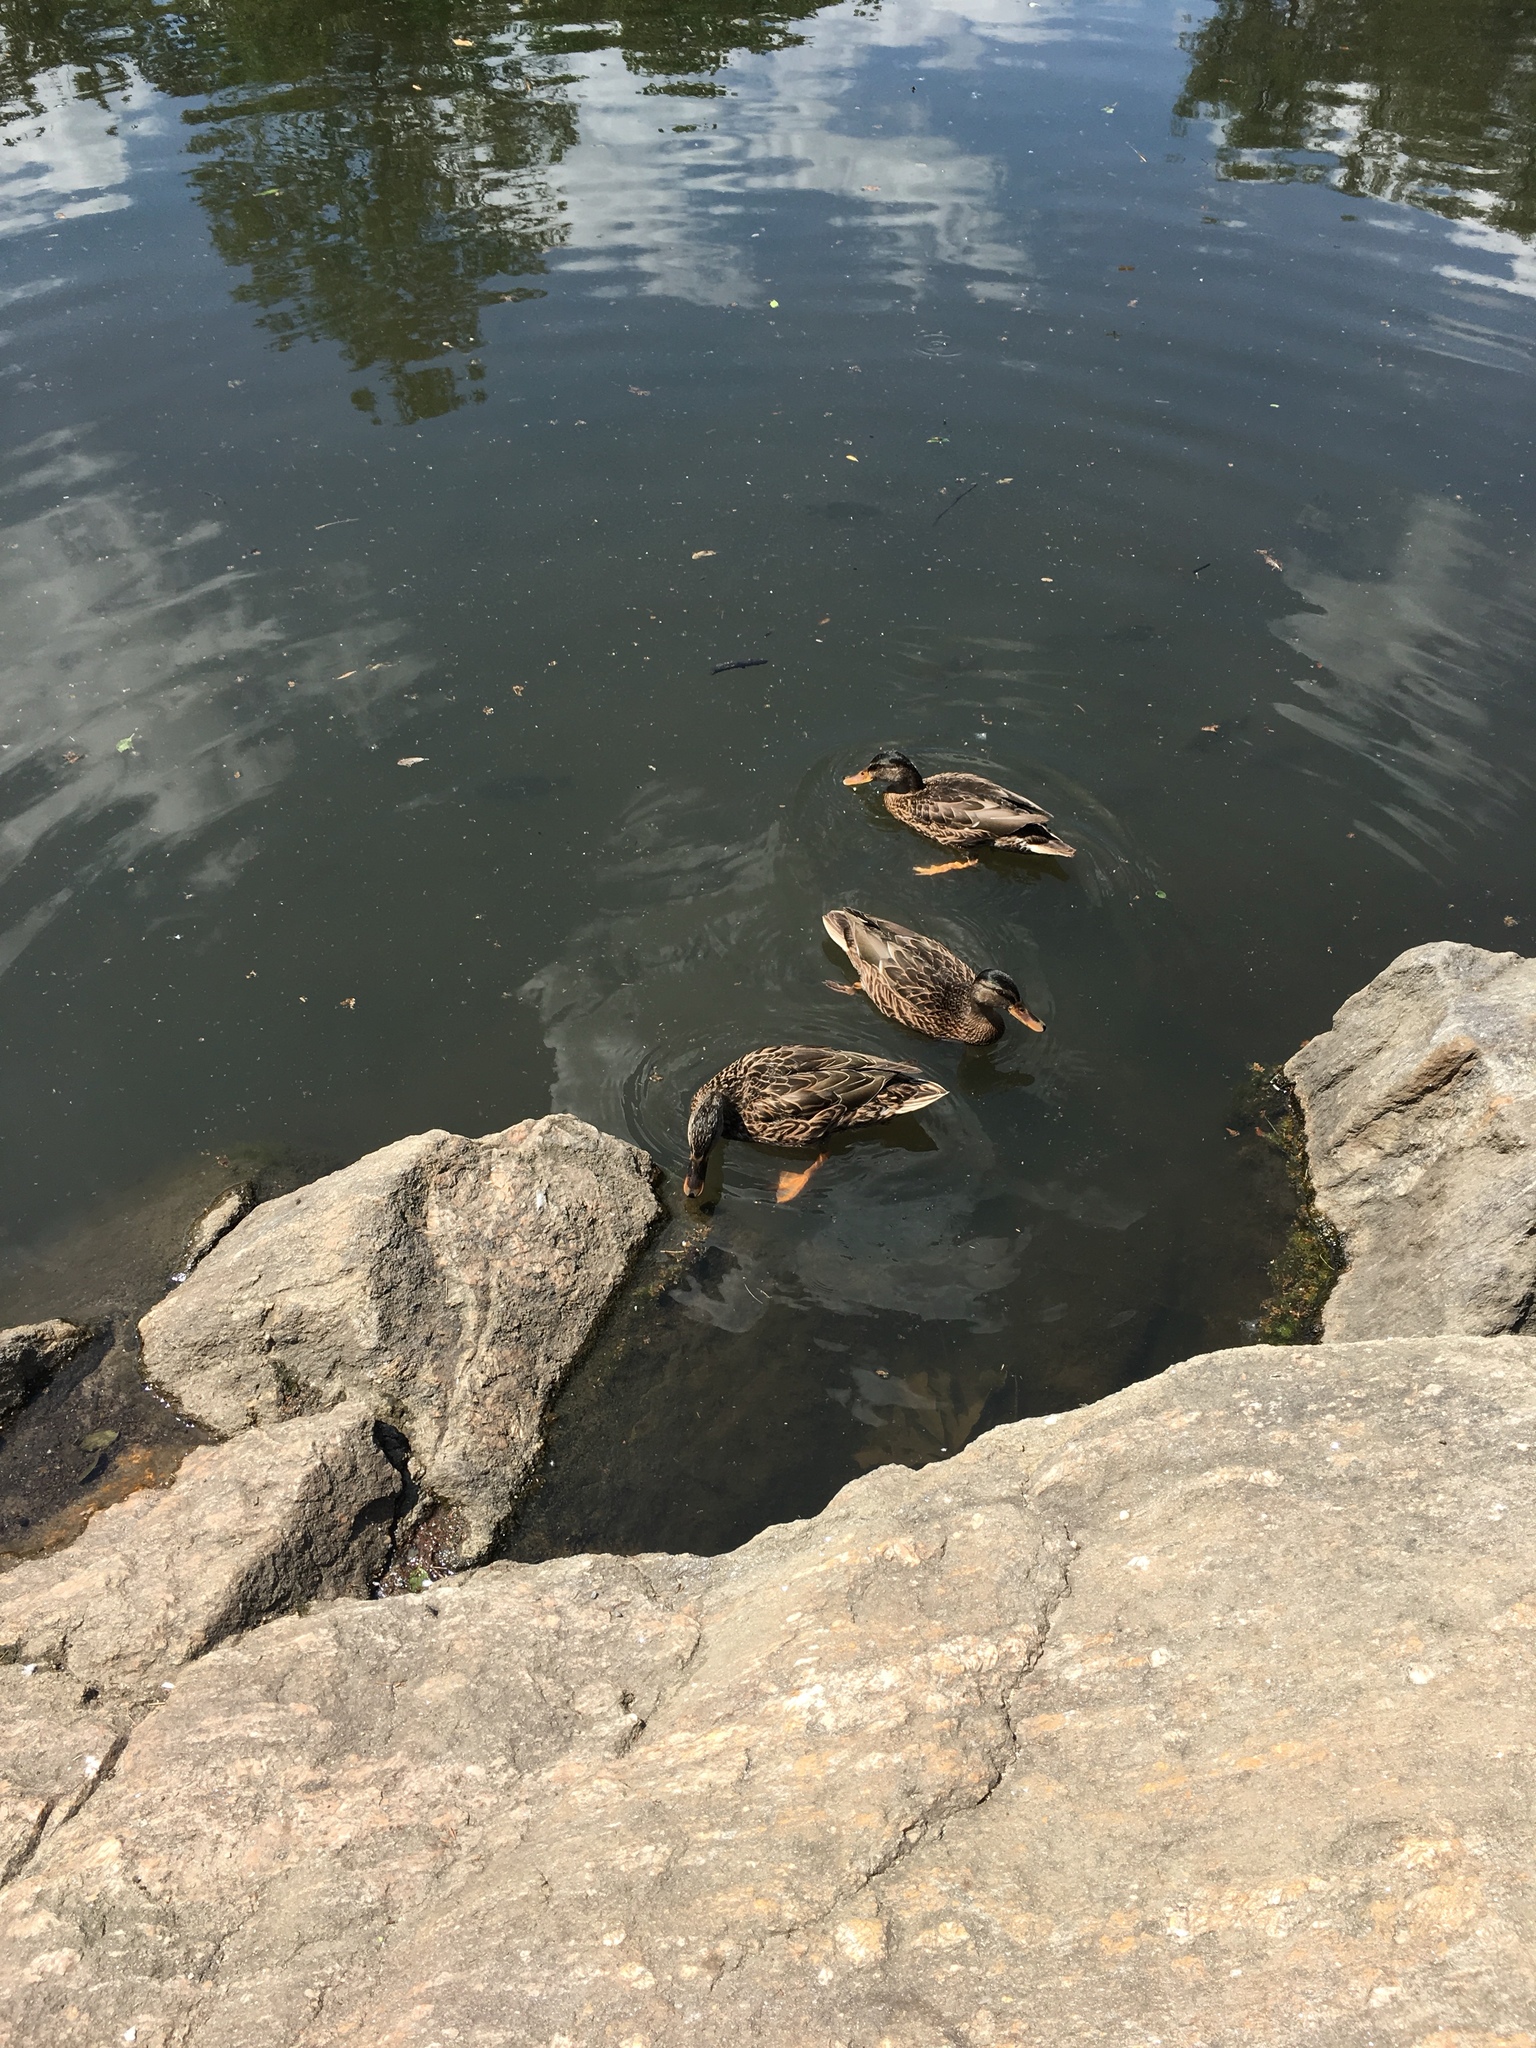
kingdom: Animalia
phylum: Chordata
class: Aves
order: Anseriformes
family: Anatidae
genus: Anas
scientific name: Anas platyrhynchos
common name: Mallard
